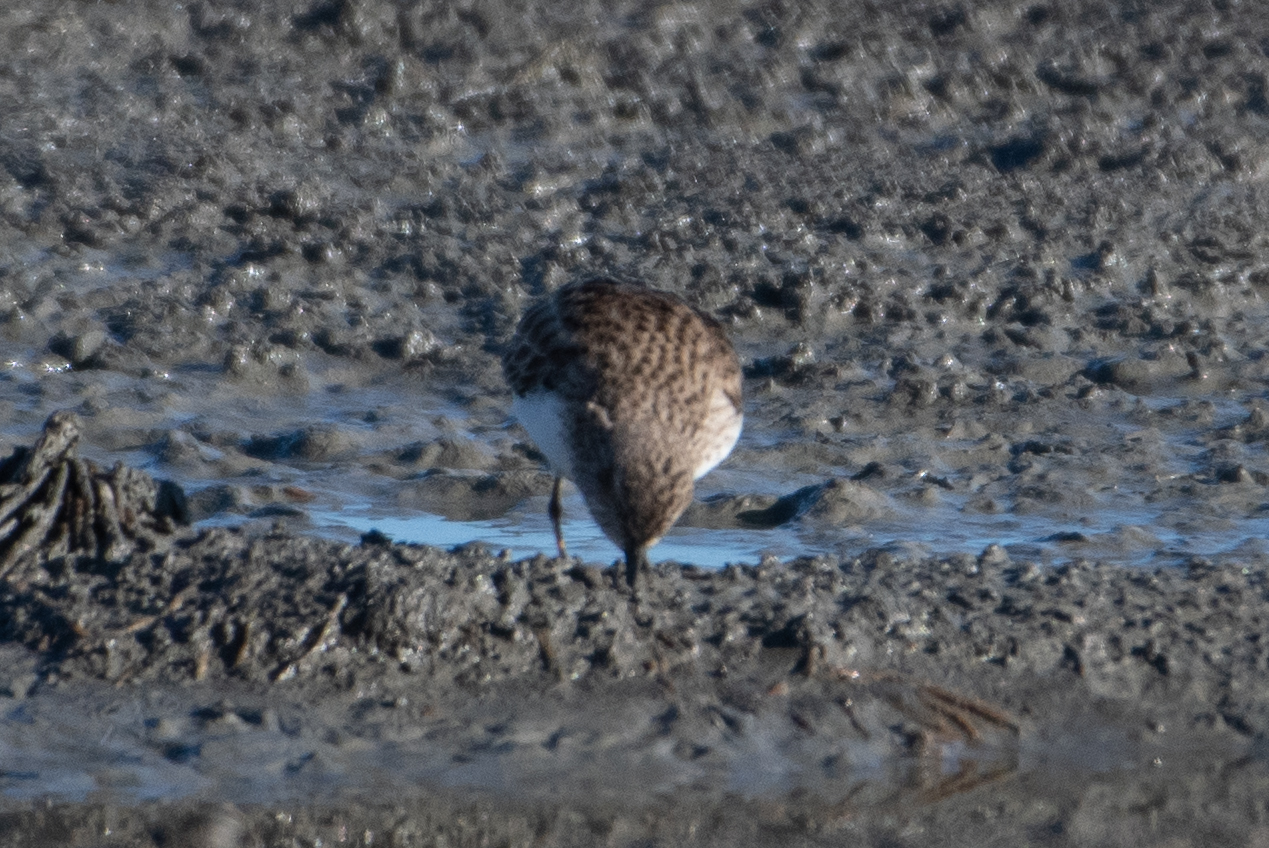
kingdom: Animalia
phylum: Chordata
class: Aves
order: Charadriiformes
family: Scolopacidae
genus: Calidris
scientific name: Calidris minutilla
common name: Least sandpiper
